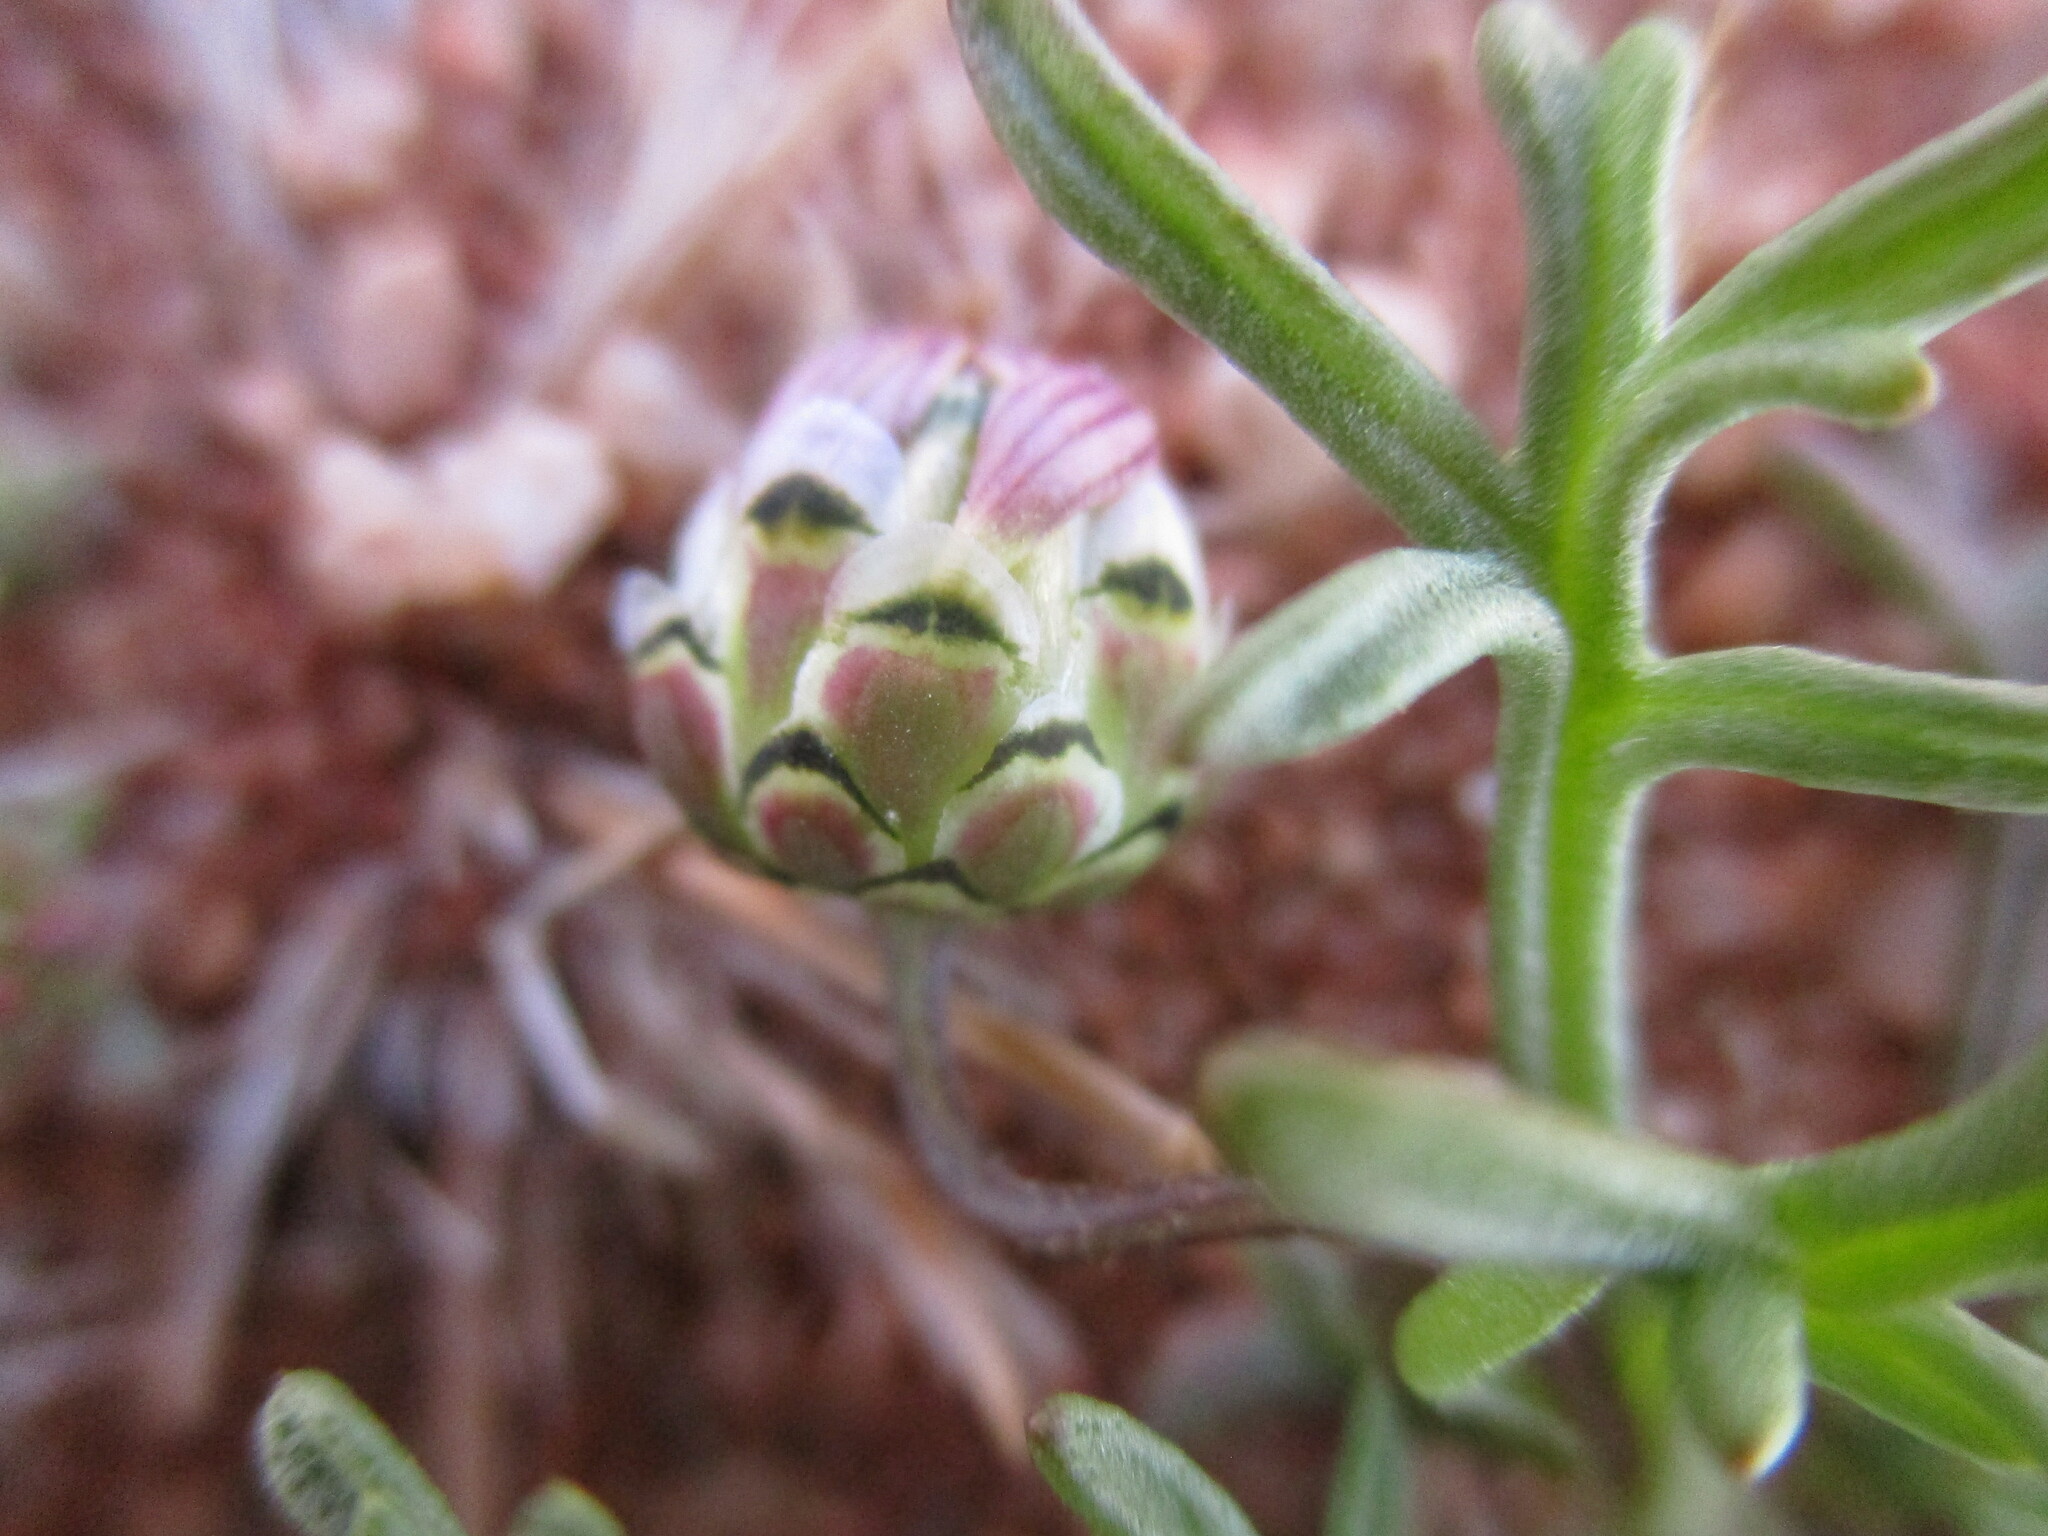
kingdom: Plantae
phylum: Tracheophyta
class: Magnoliopsida
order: Asterales
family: Asteraceae
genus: Ursinia
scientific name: Ursinia nana
